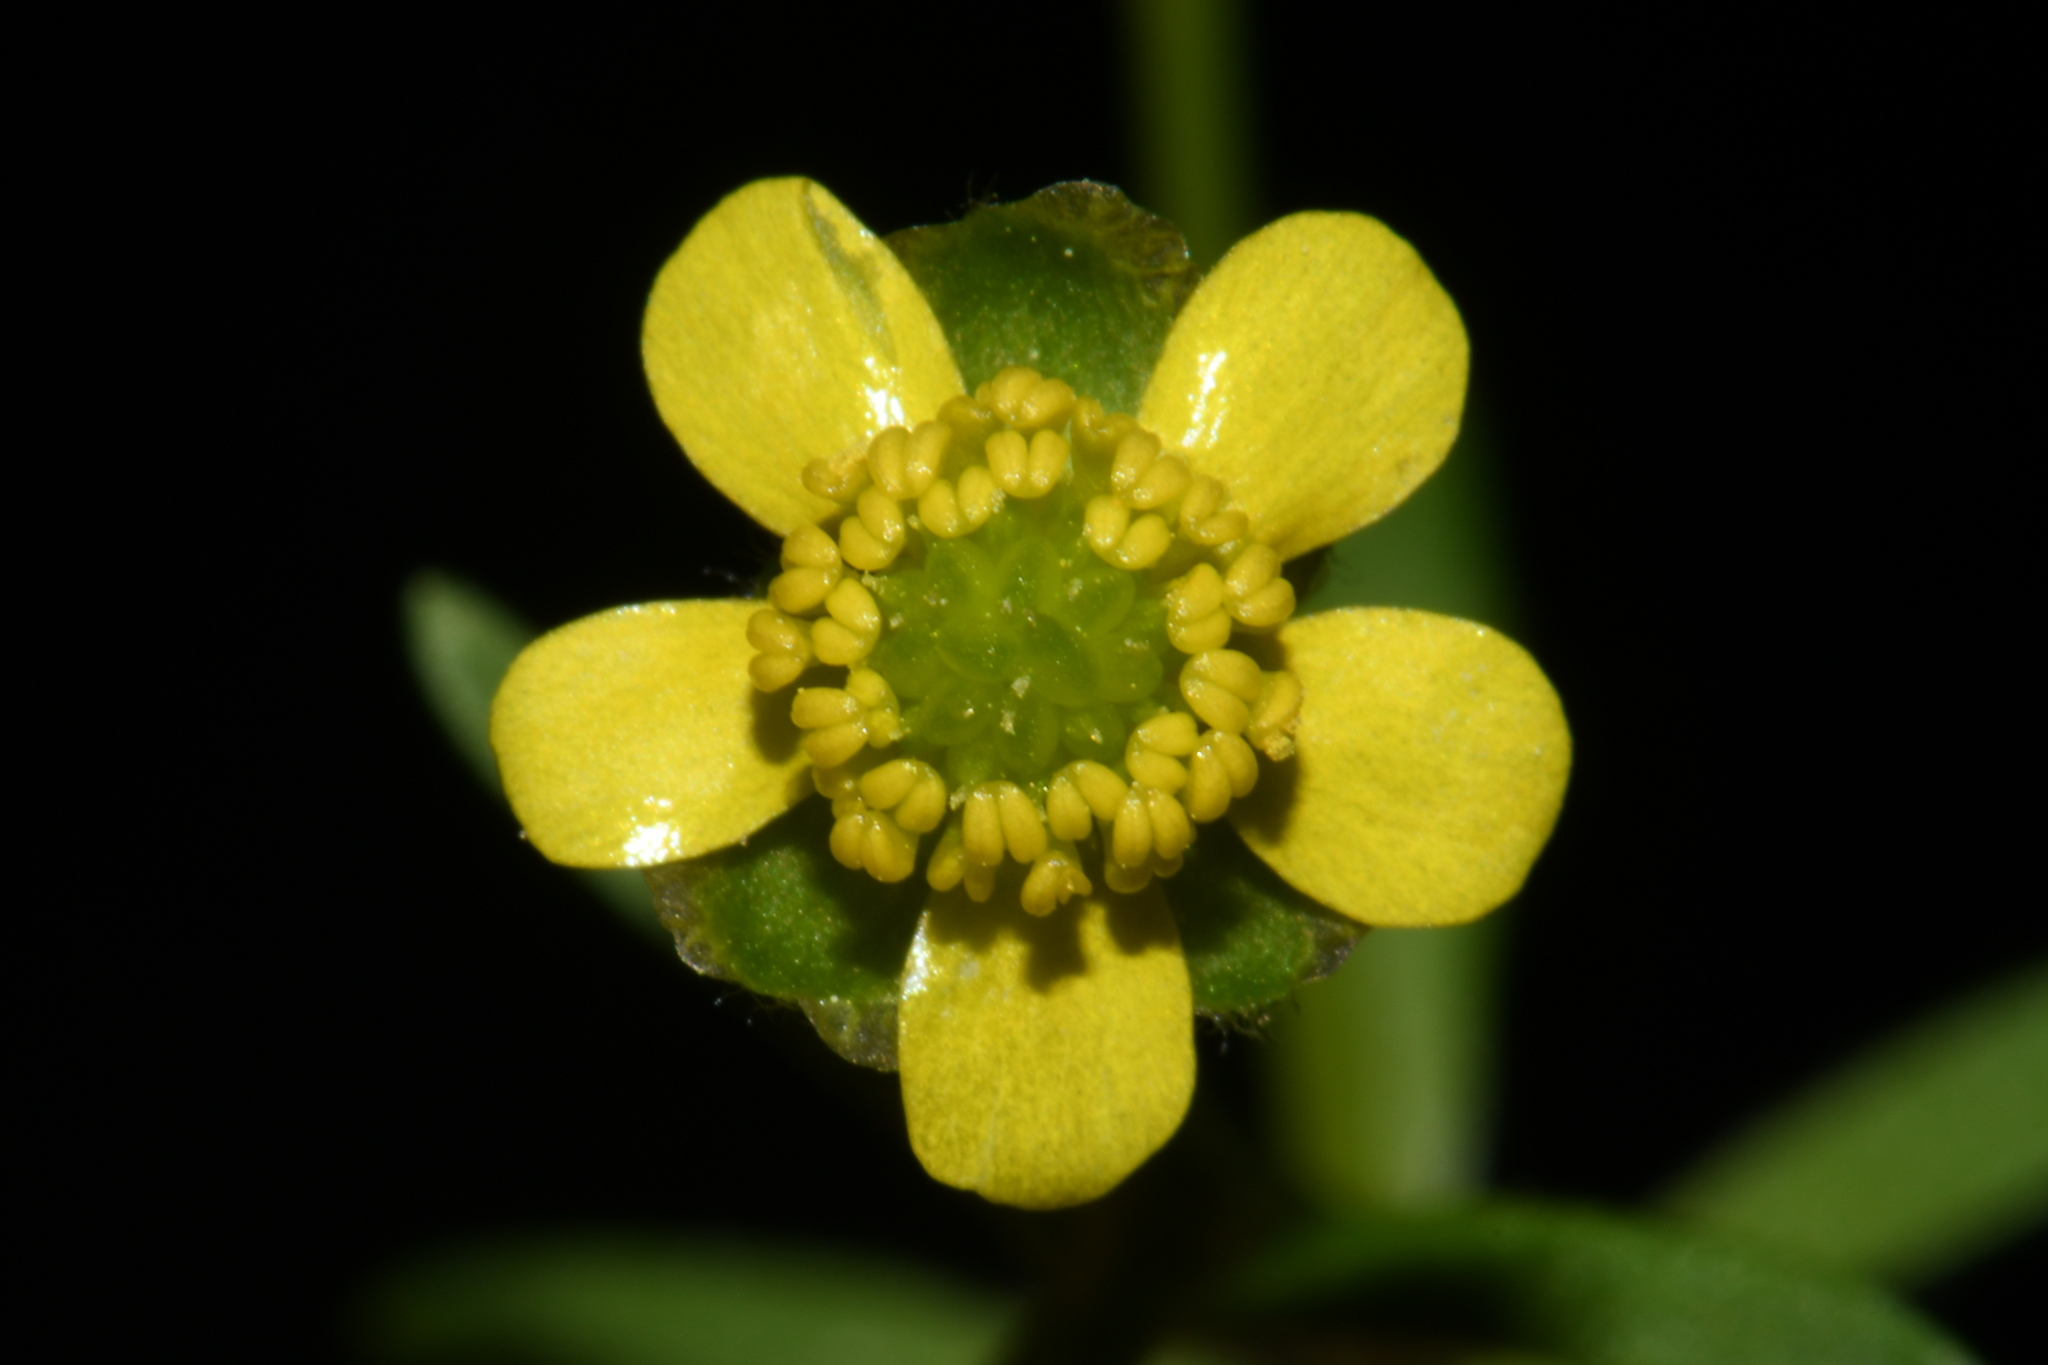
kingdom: Plantae
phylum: Tracheophyta
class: Magnoliopsida
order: Ranunculales
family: Ranunculaceae
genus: Ranunculus
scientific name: Ranunculus harveyi
